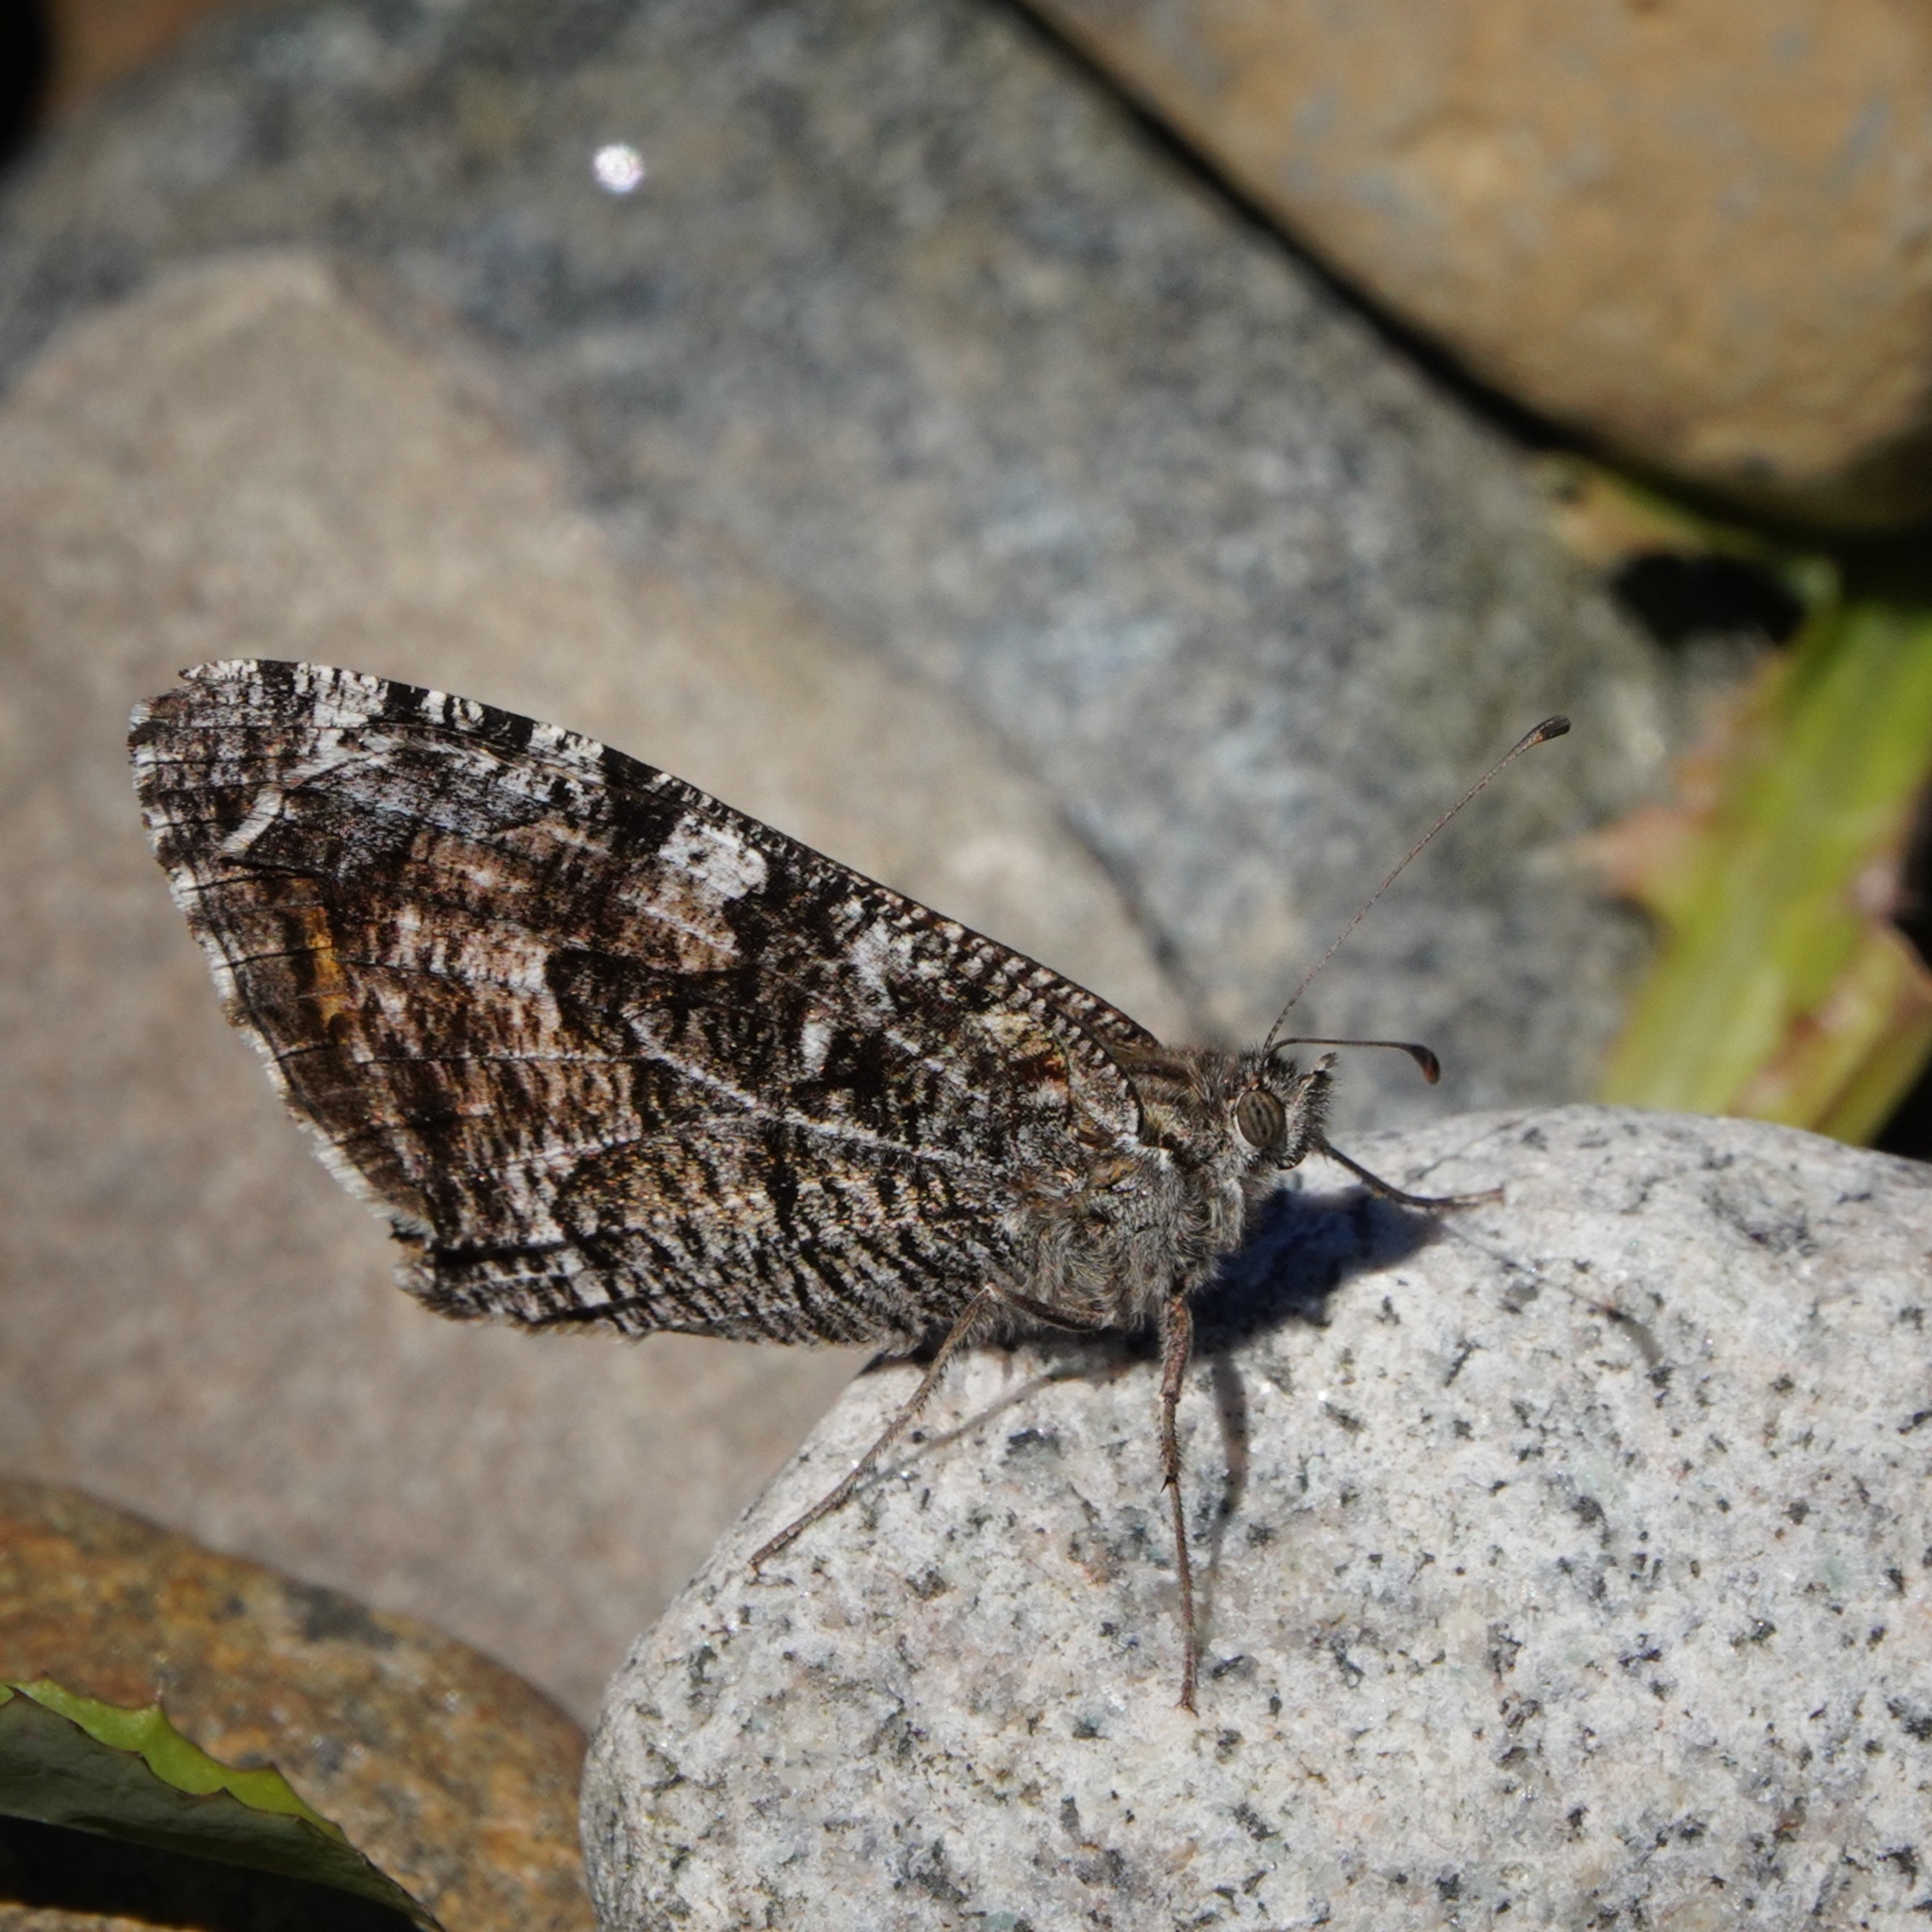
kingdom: Animalia
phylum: Arthropoda
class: Insecta
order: Lepidoptera
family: Nymphalidae
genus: Hipparchia
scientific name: Hipparchia semele
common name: Grayling
